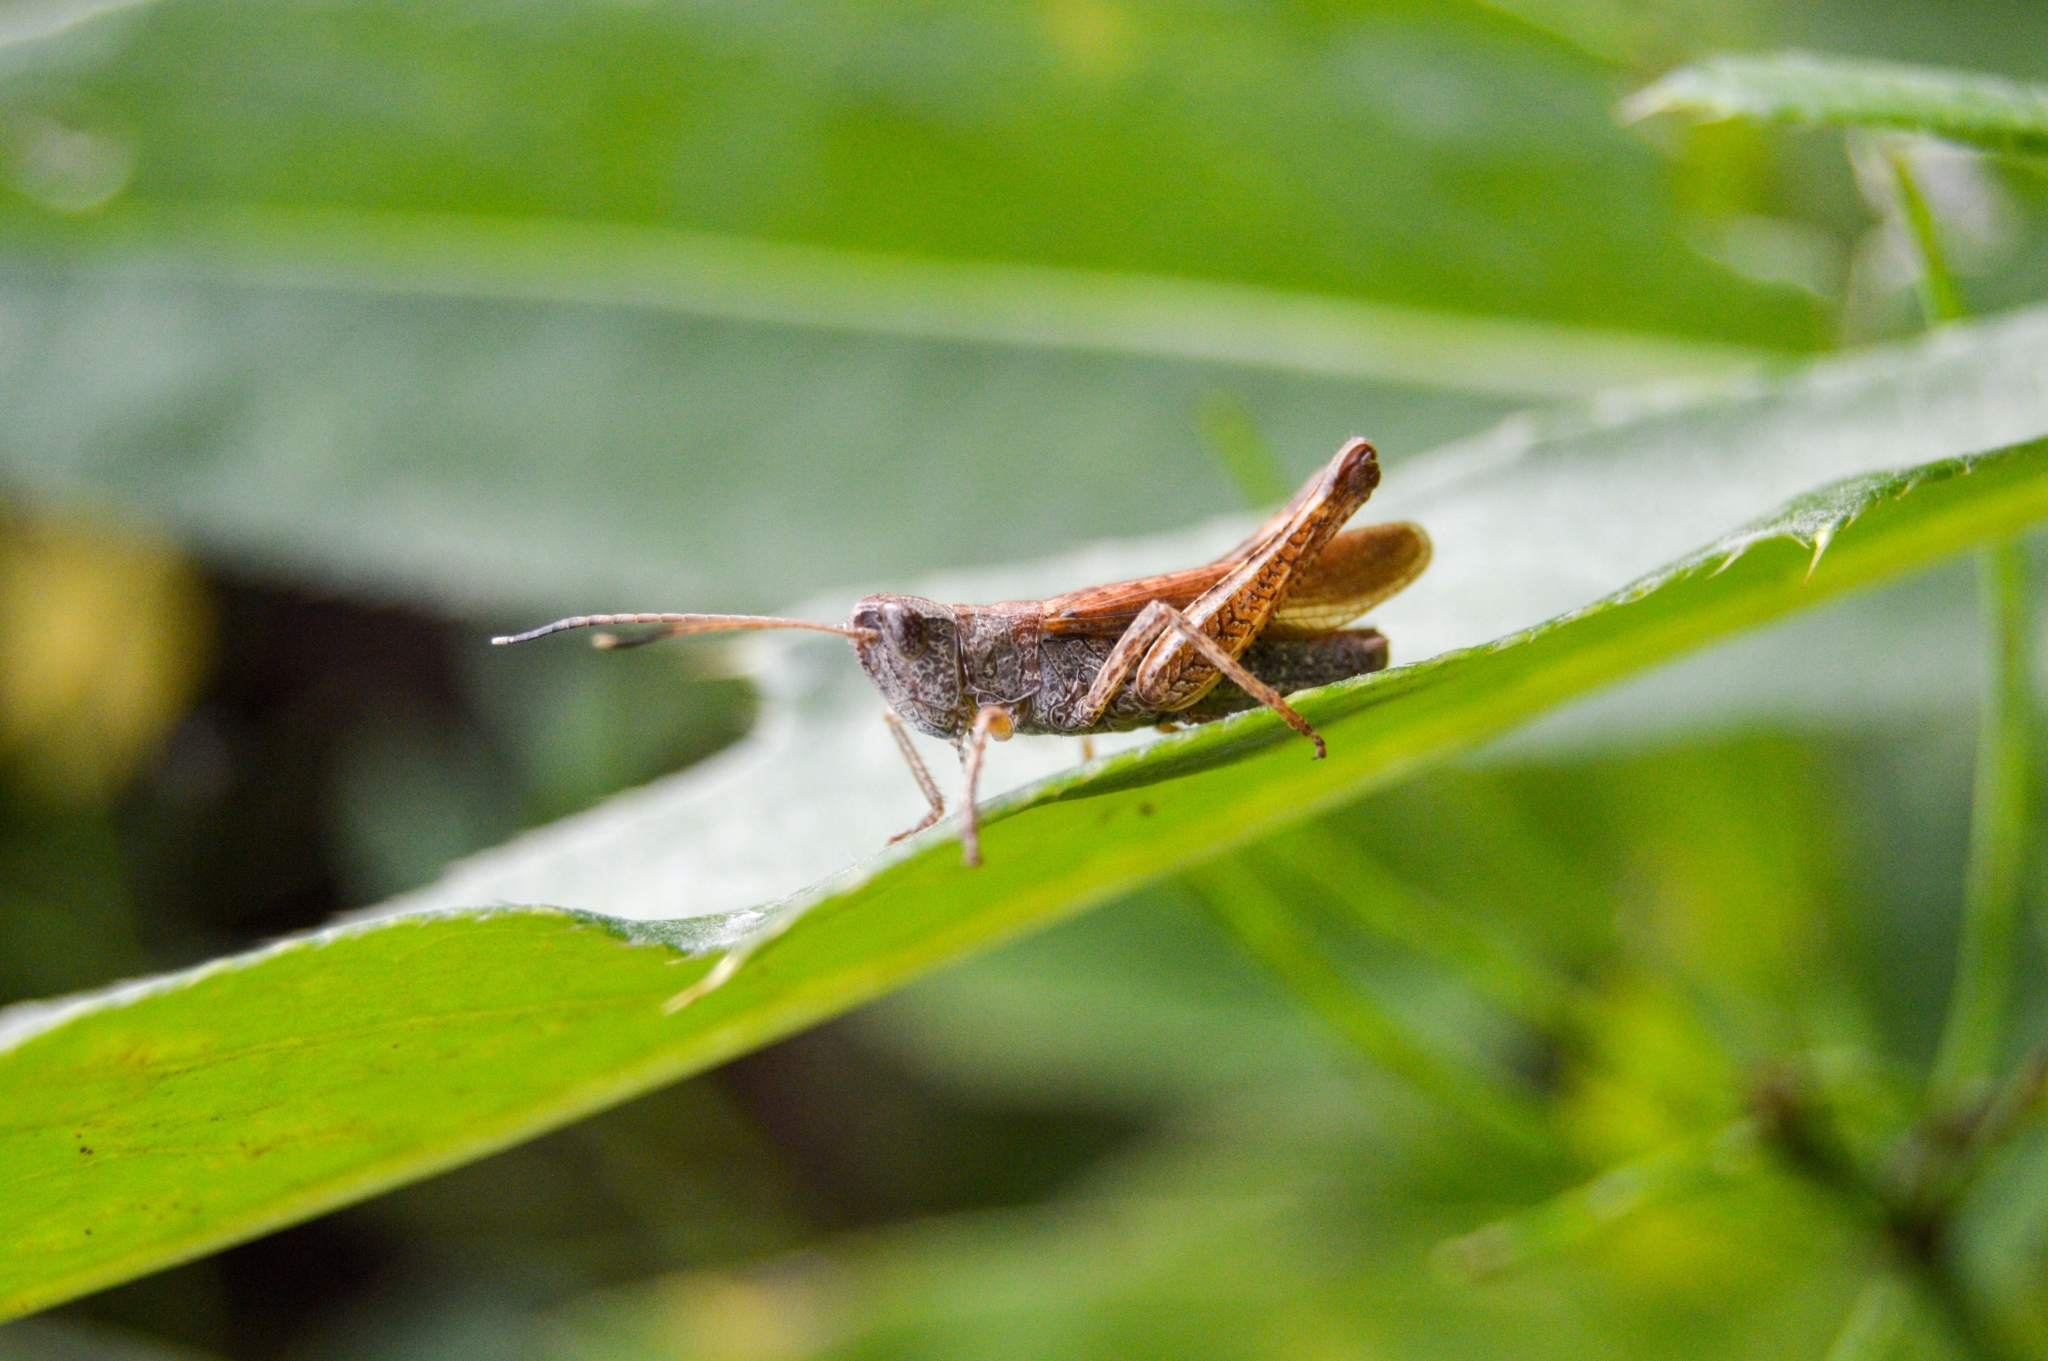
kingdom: Animalia
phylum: Arthropoda
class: Insecta
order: Orthoptera
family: Acrididae
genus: Gomphocerippus
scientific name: Gomphocerippus rufus
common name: Rufous grasshopper
